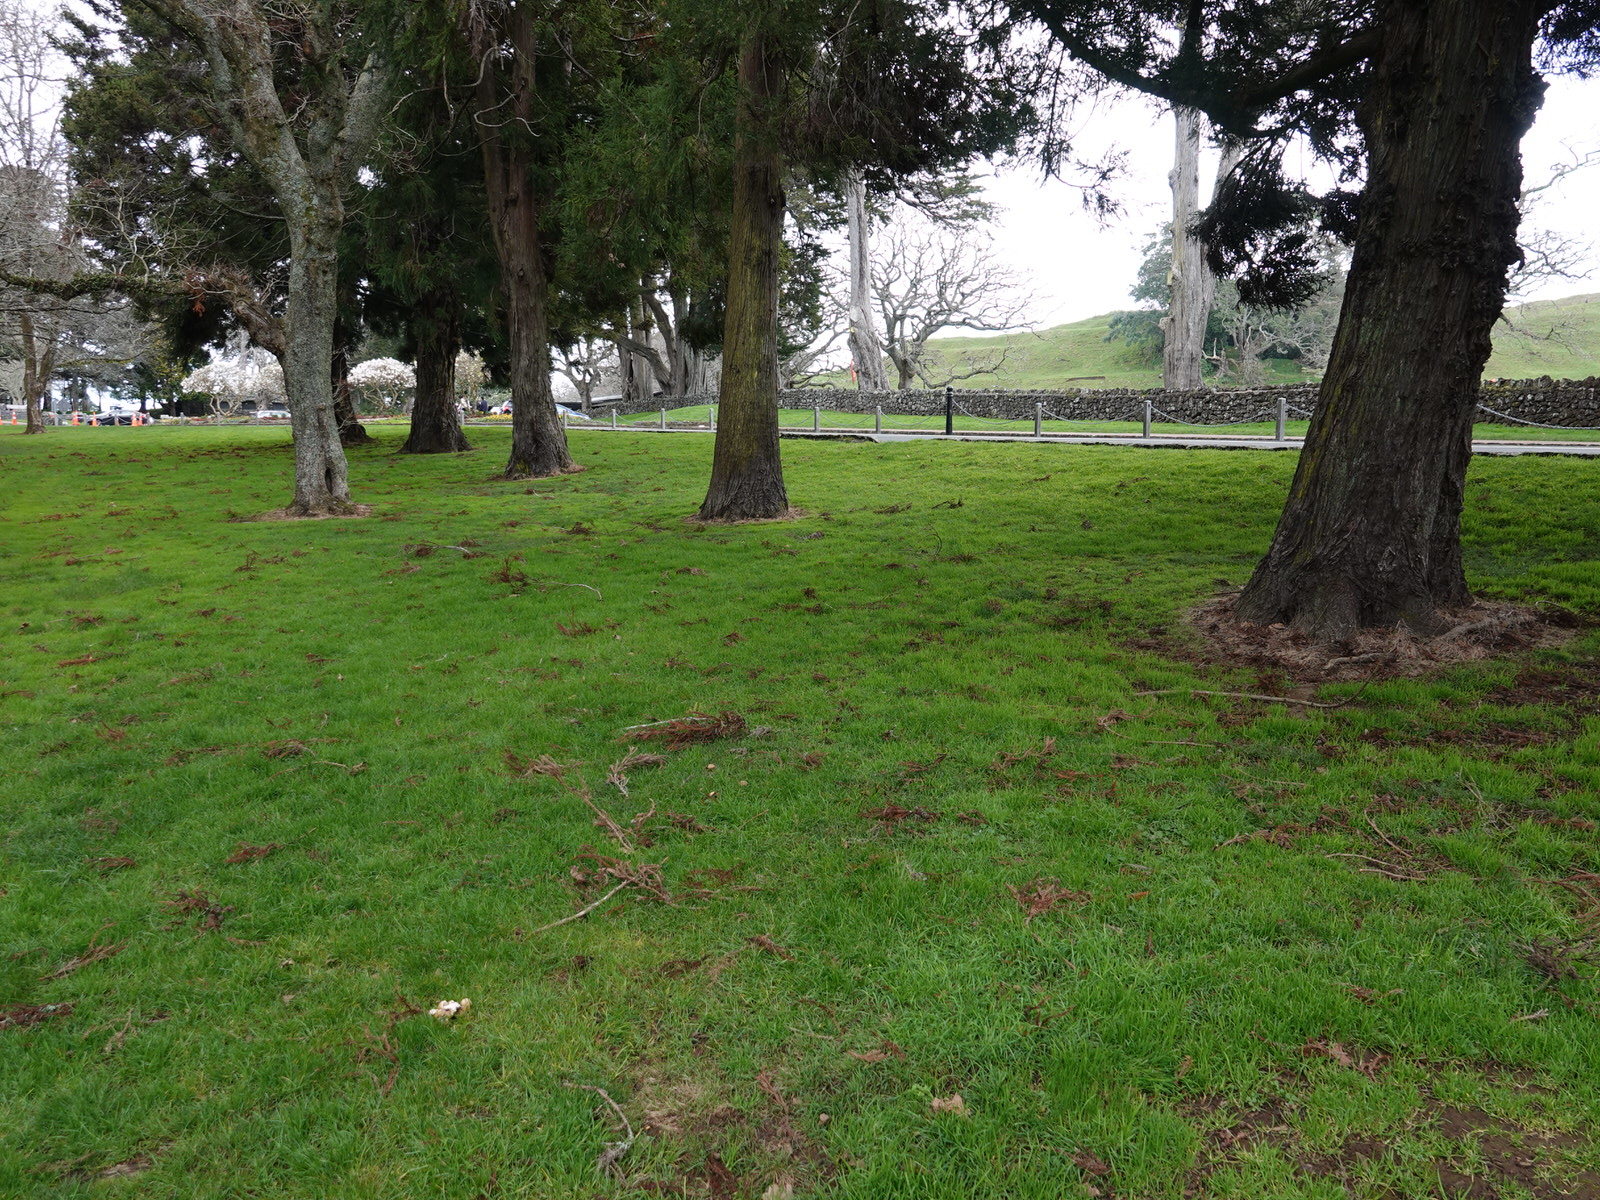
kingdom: Fungi
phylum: Basidiomycota
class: Agaricomycetes
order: Agaricales
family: Psathyrellaceae
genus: Candolleomyces
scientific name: Candolleomyces candolleanus
